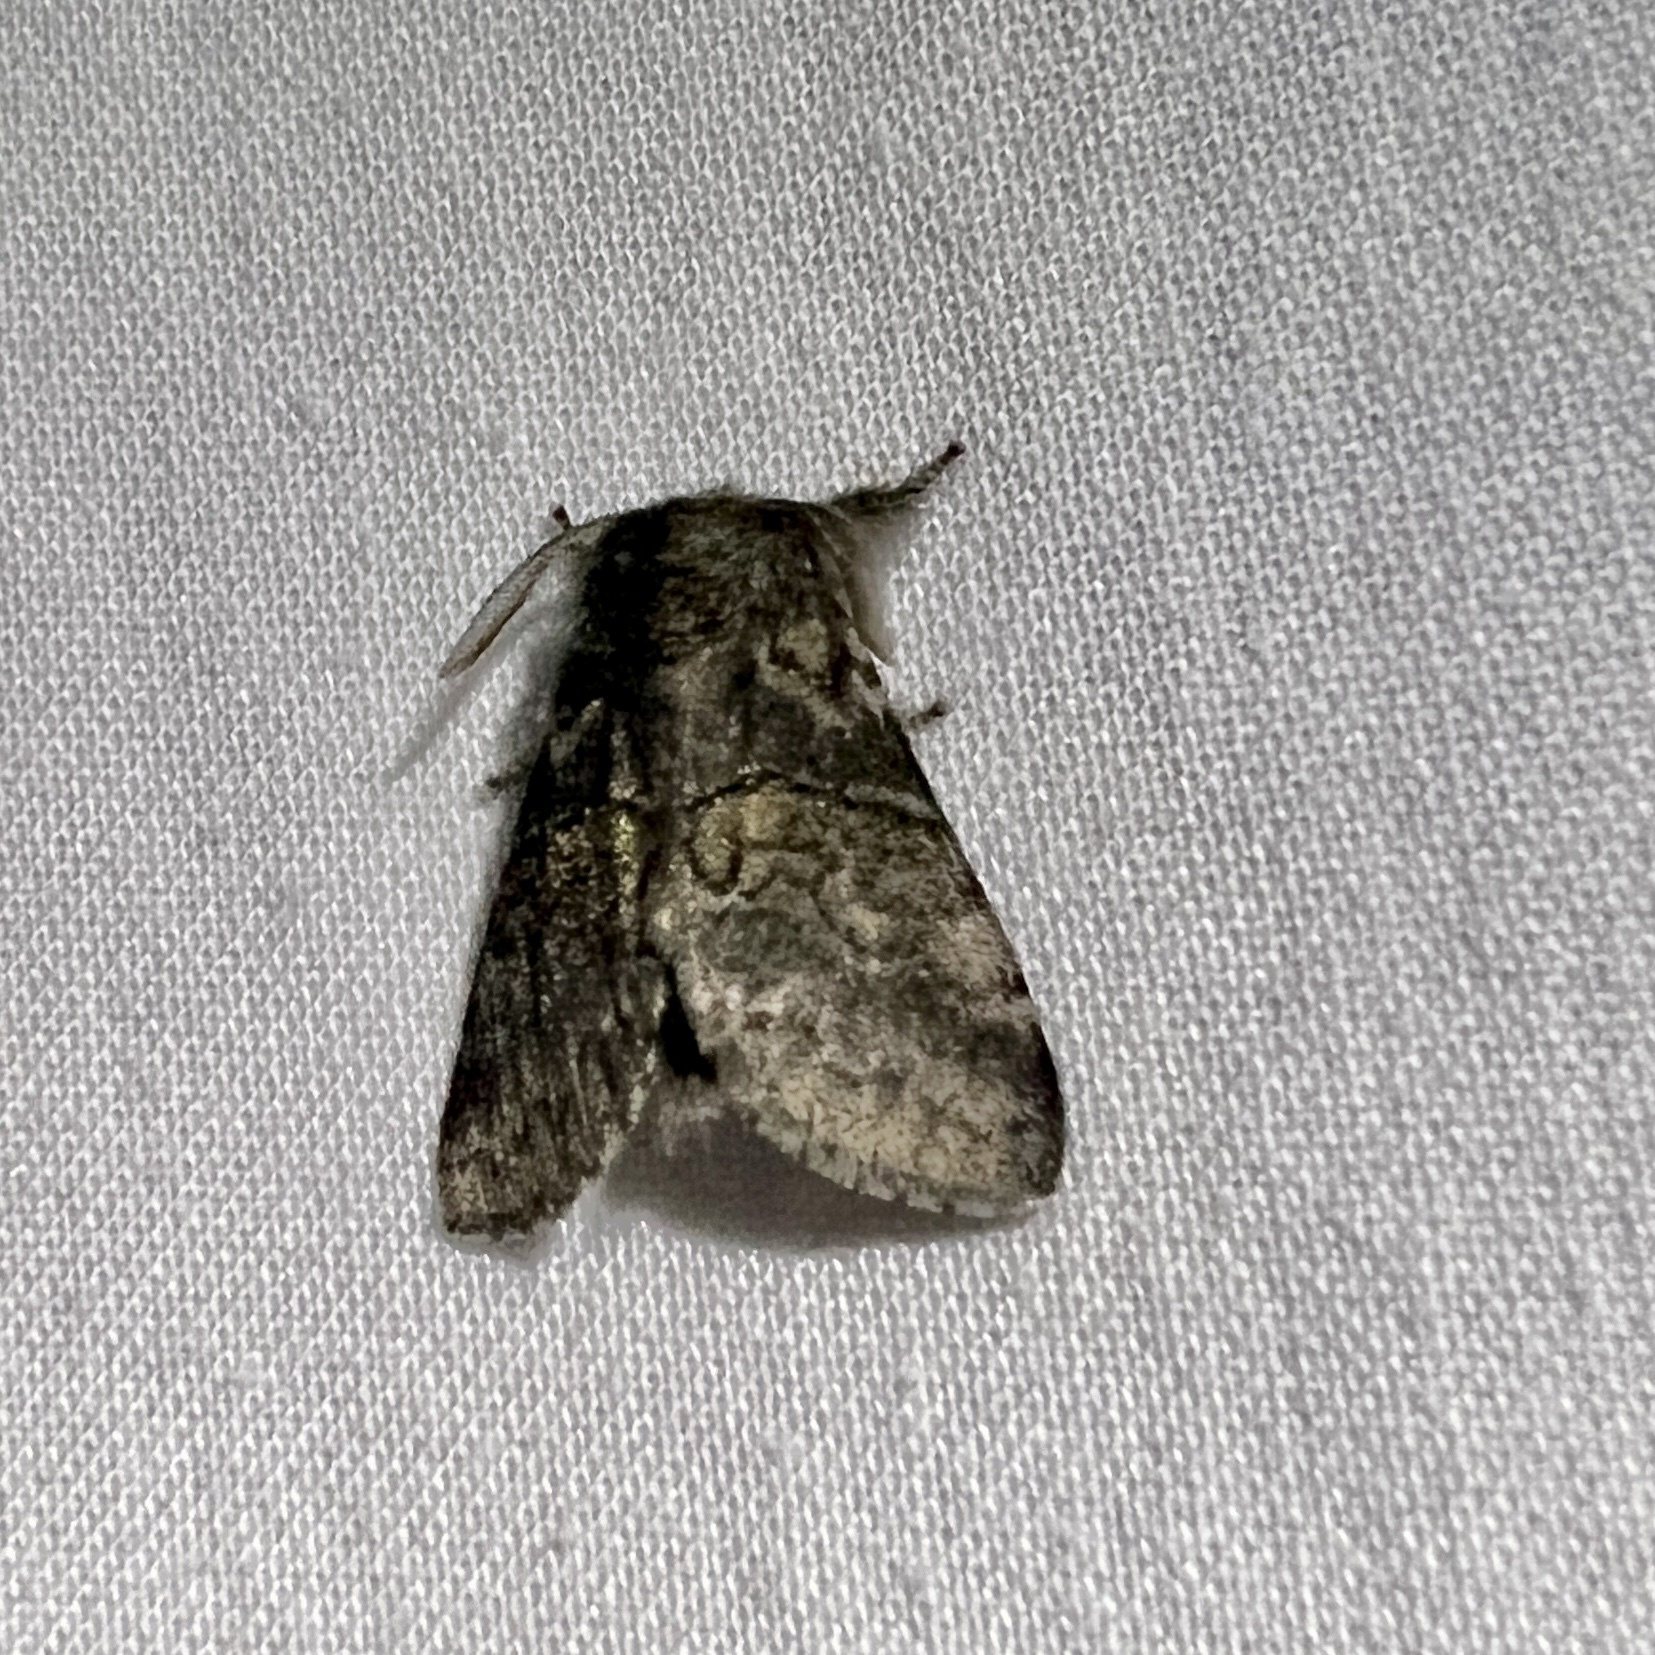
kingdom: Animalia
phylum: Arthropoda
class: Insecta
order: Lepidoptera
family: Notodontidae
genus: Gluphisia
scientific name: Gluphisia septentrionis
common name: Common gluphisia
